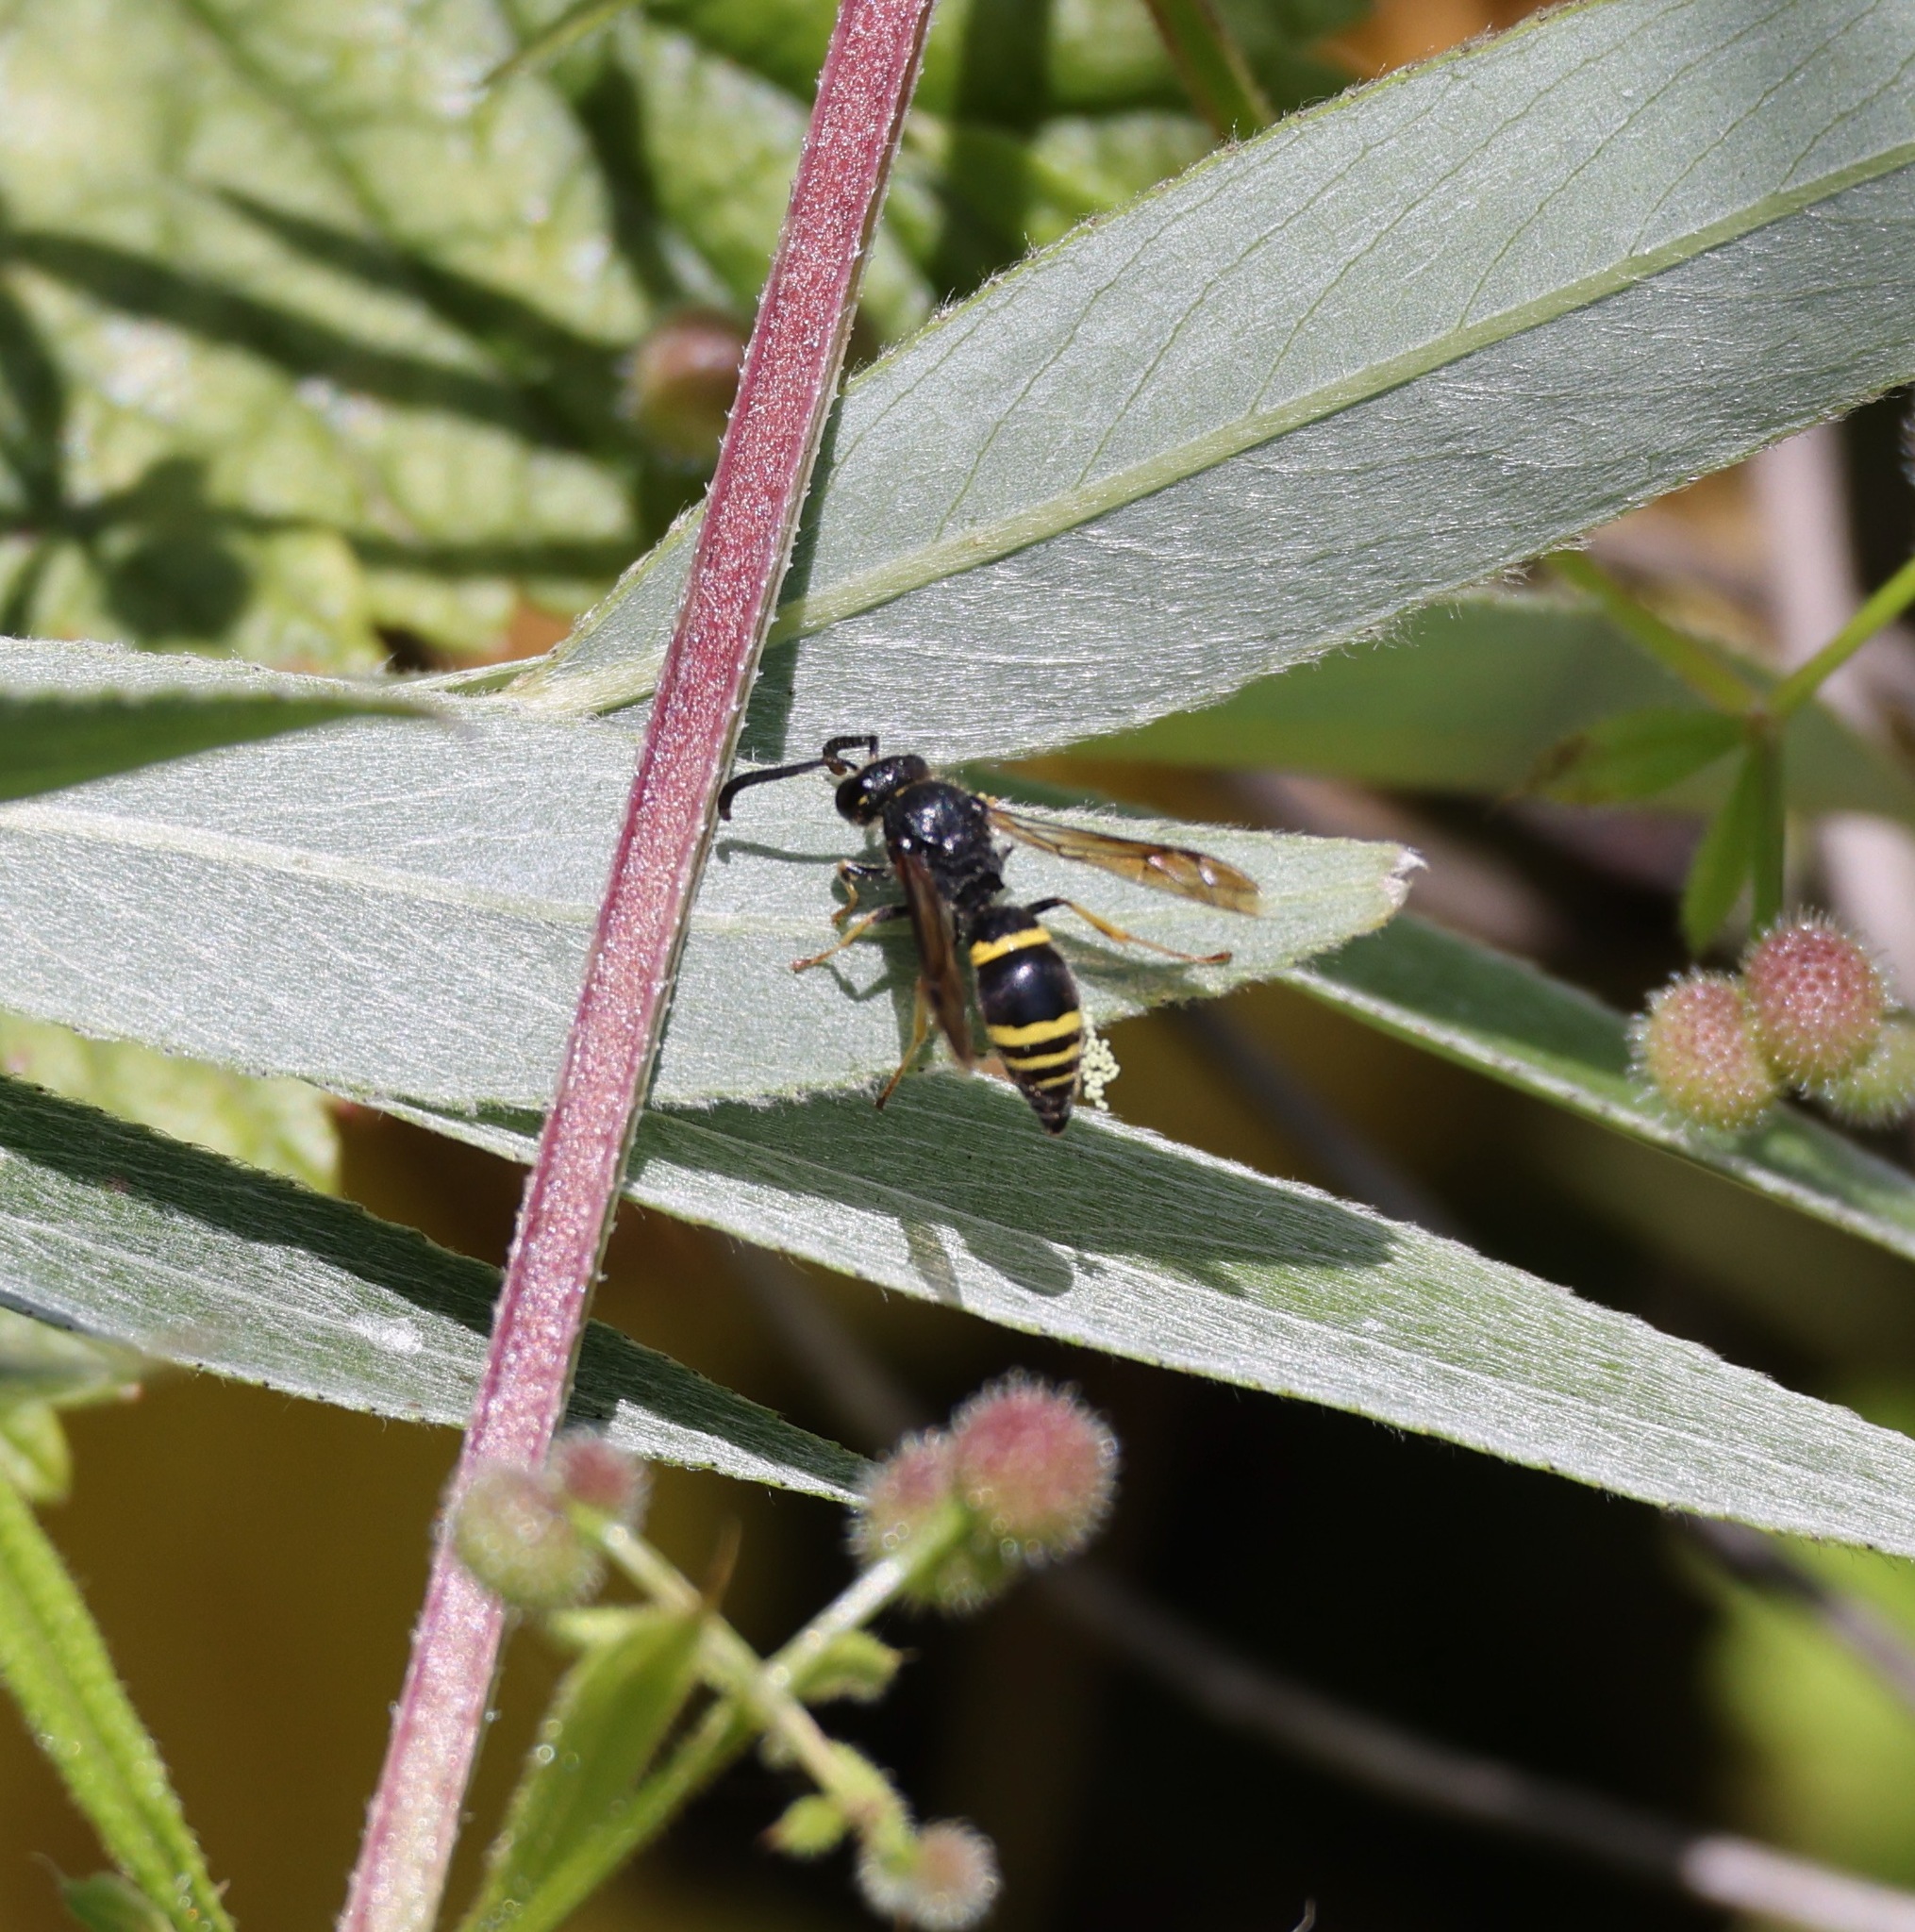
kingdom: Animalia
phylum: Arthropoda
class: Insecta
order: Hymenoptera
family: Vespidae
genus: Ancistrocerus
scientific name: Ancistrocerus trifasciatus
